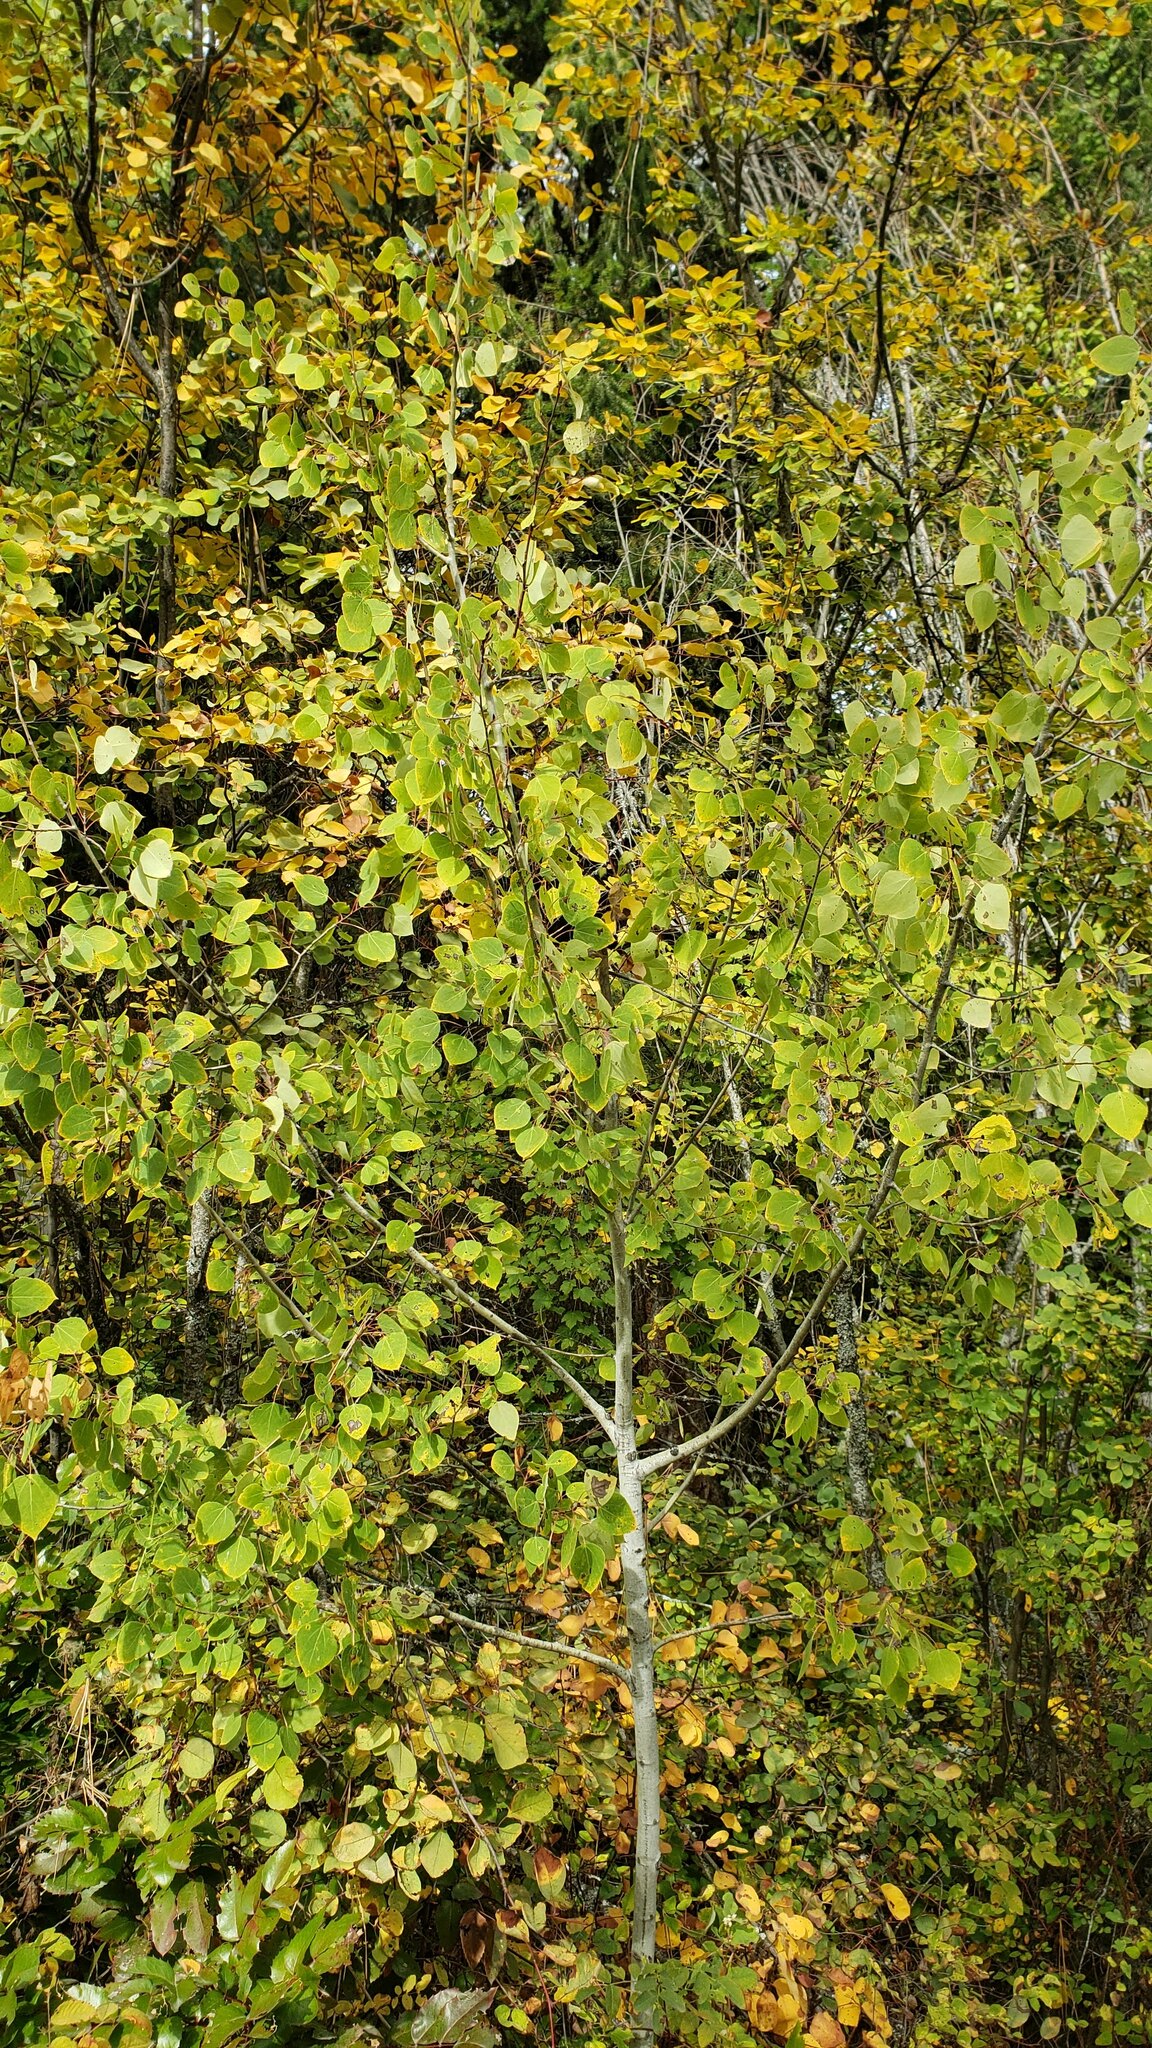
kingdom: Plantae
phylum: Tracheophyta
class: Magnoliopsida
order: Malpighiales
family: Salicaceae
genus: Populus
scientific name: Populus tremuloides
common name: Quaking aspen
